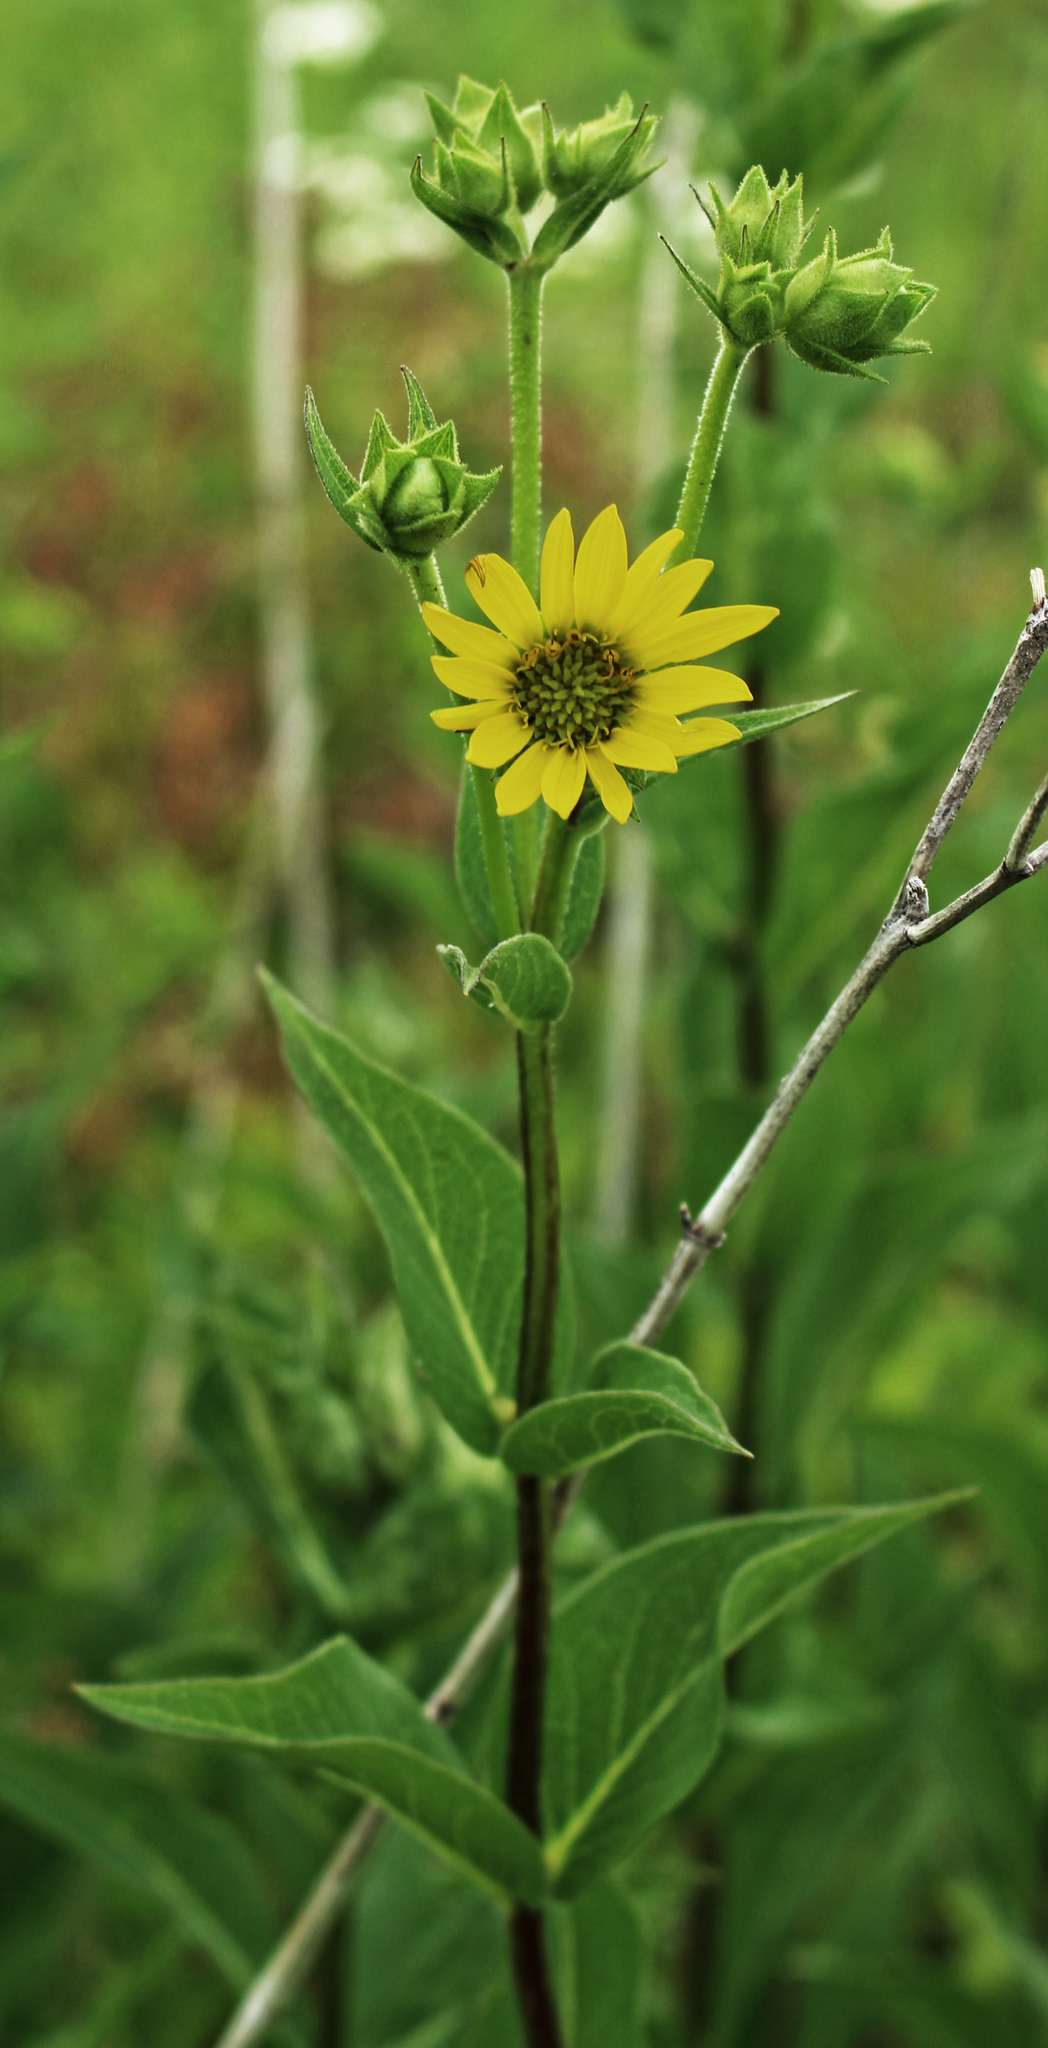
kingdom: Plantae
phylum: Tracheophyta
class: Magnoliopsida
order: Asterales
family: Asteraceae
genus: Silphium
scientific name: Silphium integrifolium
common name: Whole-leaf rosinweed
